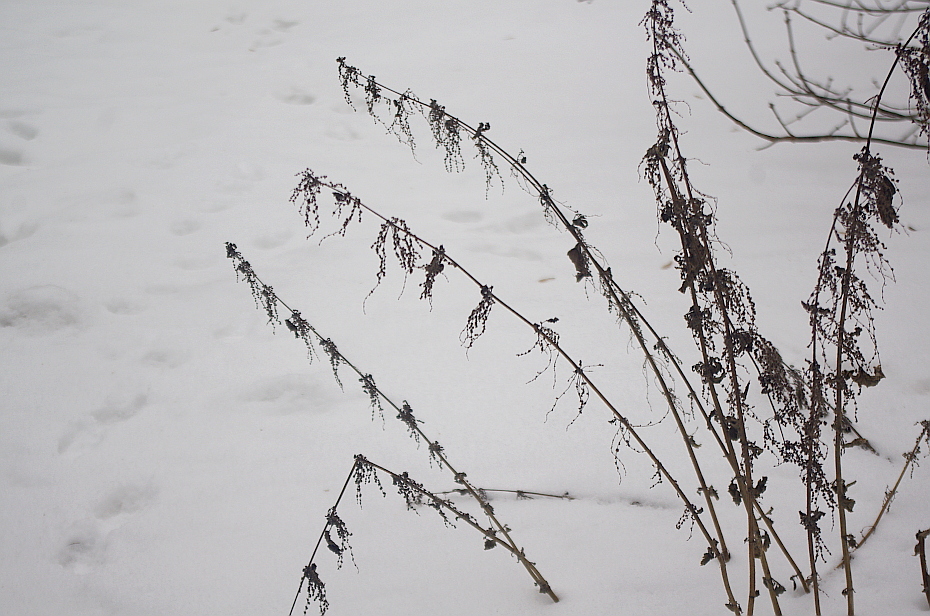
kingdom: Plantae
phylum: Tracheophyta
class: Magnoliopsida
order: Rosales
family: Urticaceae
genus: Urtica
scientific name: Urtica dioica
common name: Common nettle
